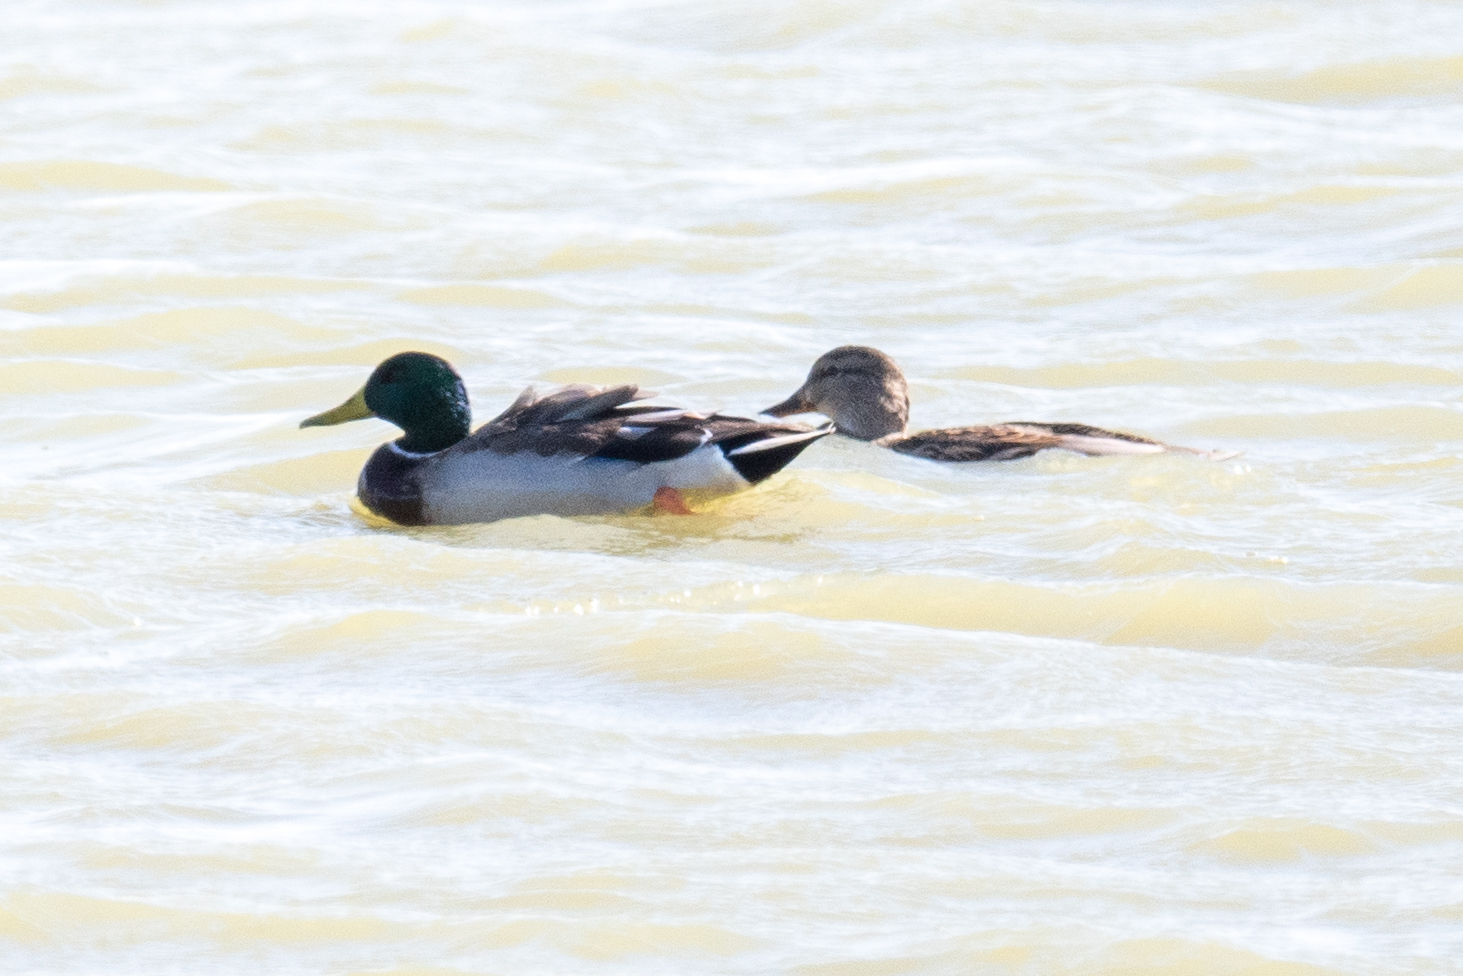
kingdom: Animalia
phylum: Chordata
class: Aves
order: Anseriformes
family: Anatidae
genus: Anas
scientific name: Anas platyrhynchos
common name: Mallard
